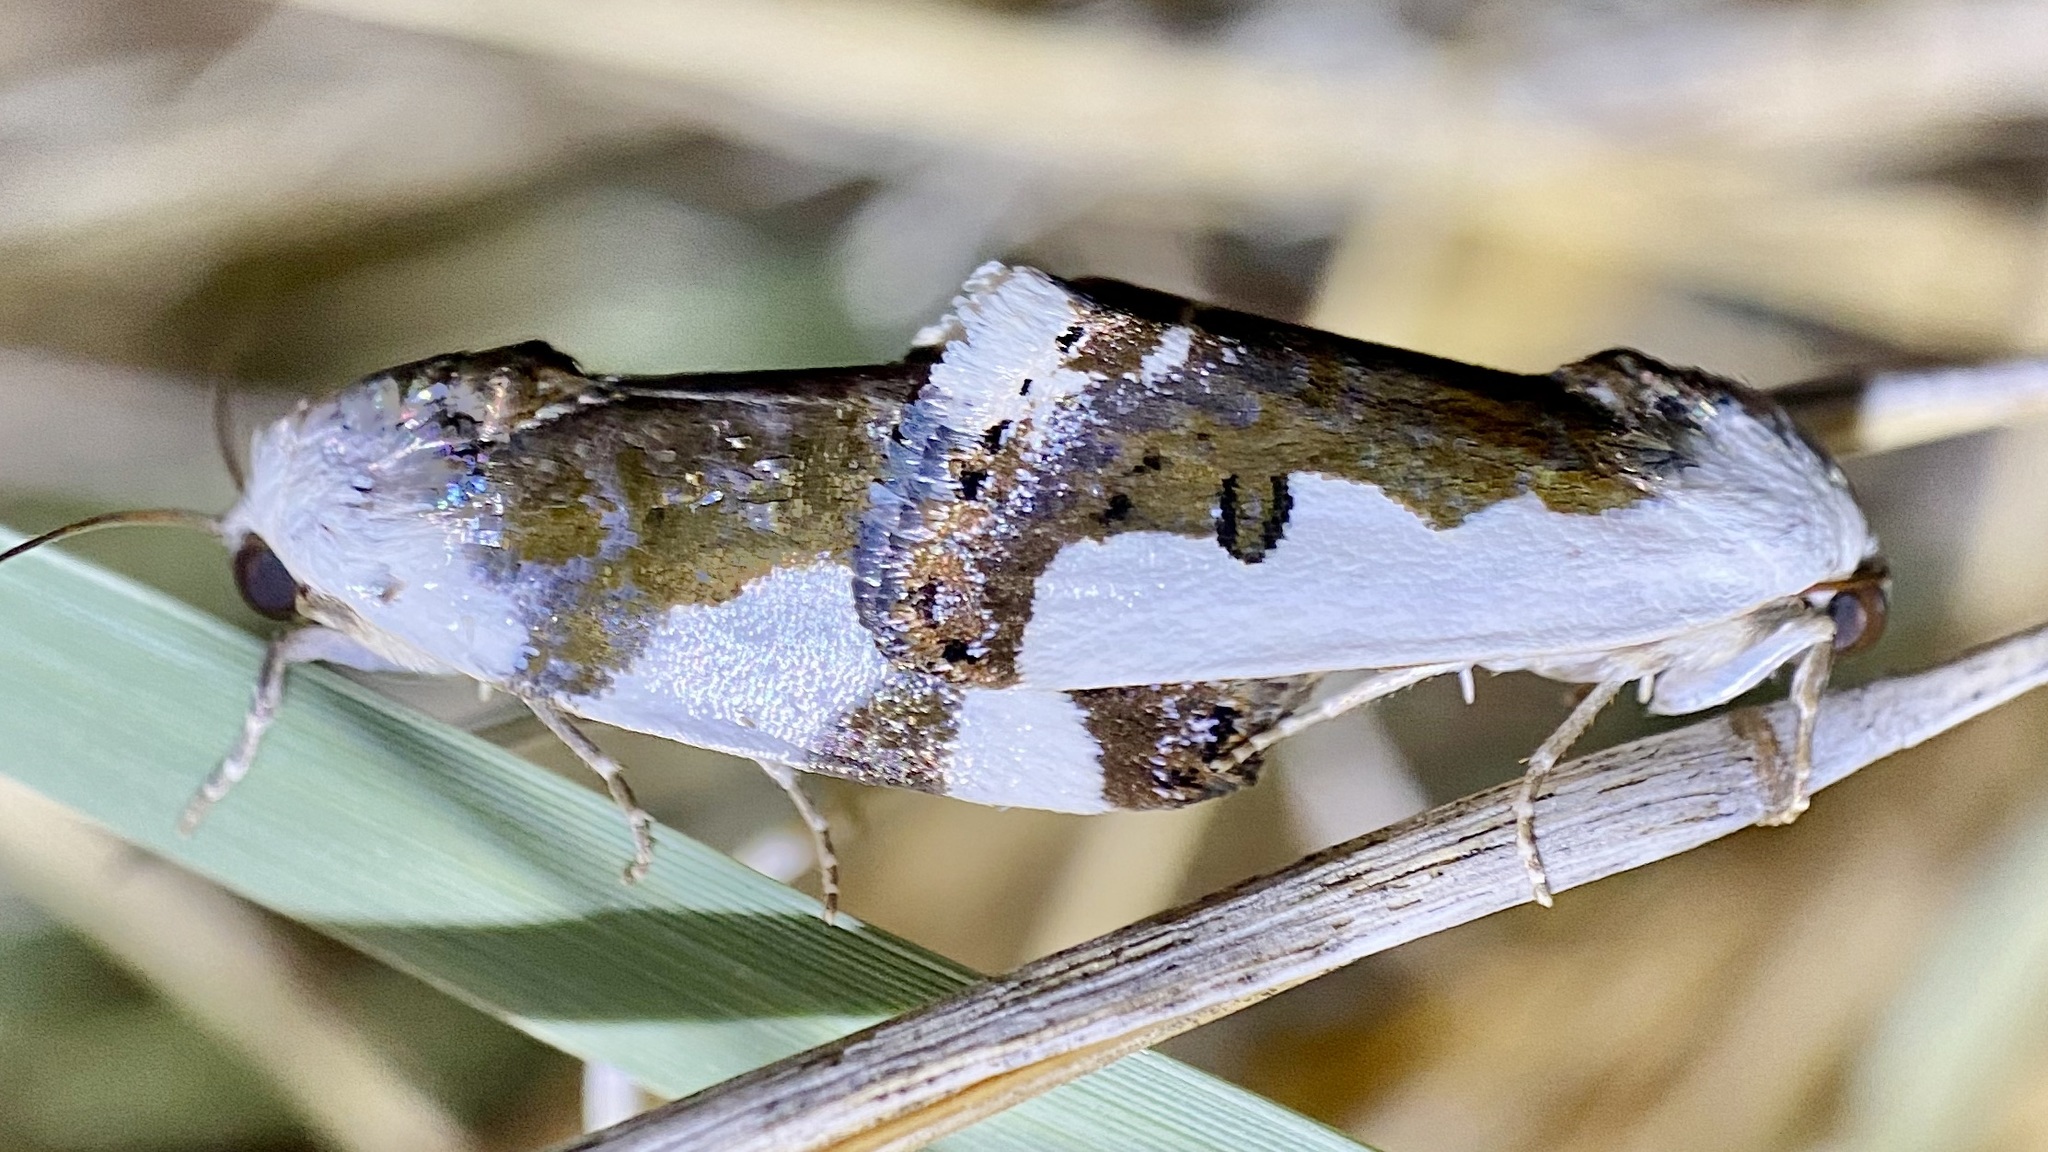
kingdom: Animalia
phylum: Arthropoda
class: Insecta
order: Lepidoptera
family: Noctuidae
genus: Acontia
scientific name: Acontia lucasi
